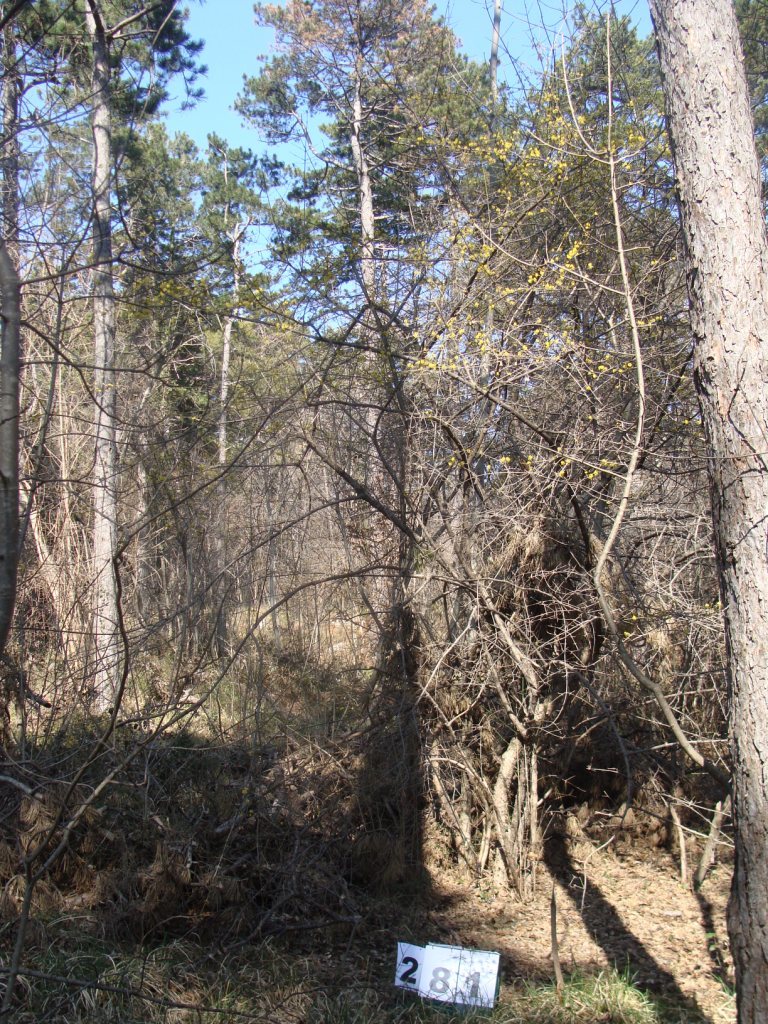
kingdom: Plantae
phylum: Tracheophyta
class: Magnoliopsida
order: Cornales
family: Cornaceae
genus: Cornus
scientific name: Cornus mas
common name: Cornelian-cherry
